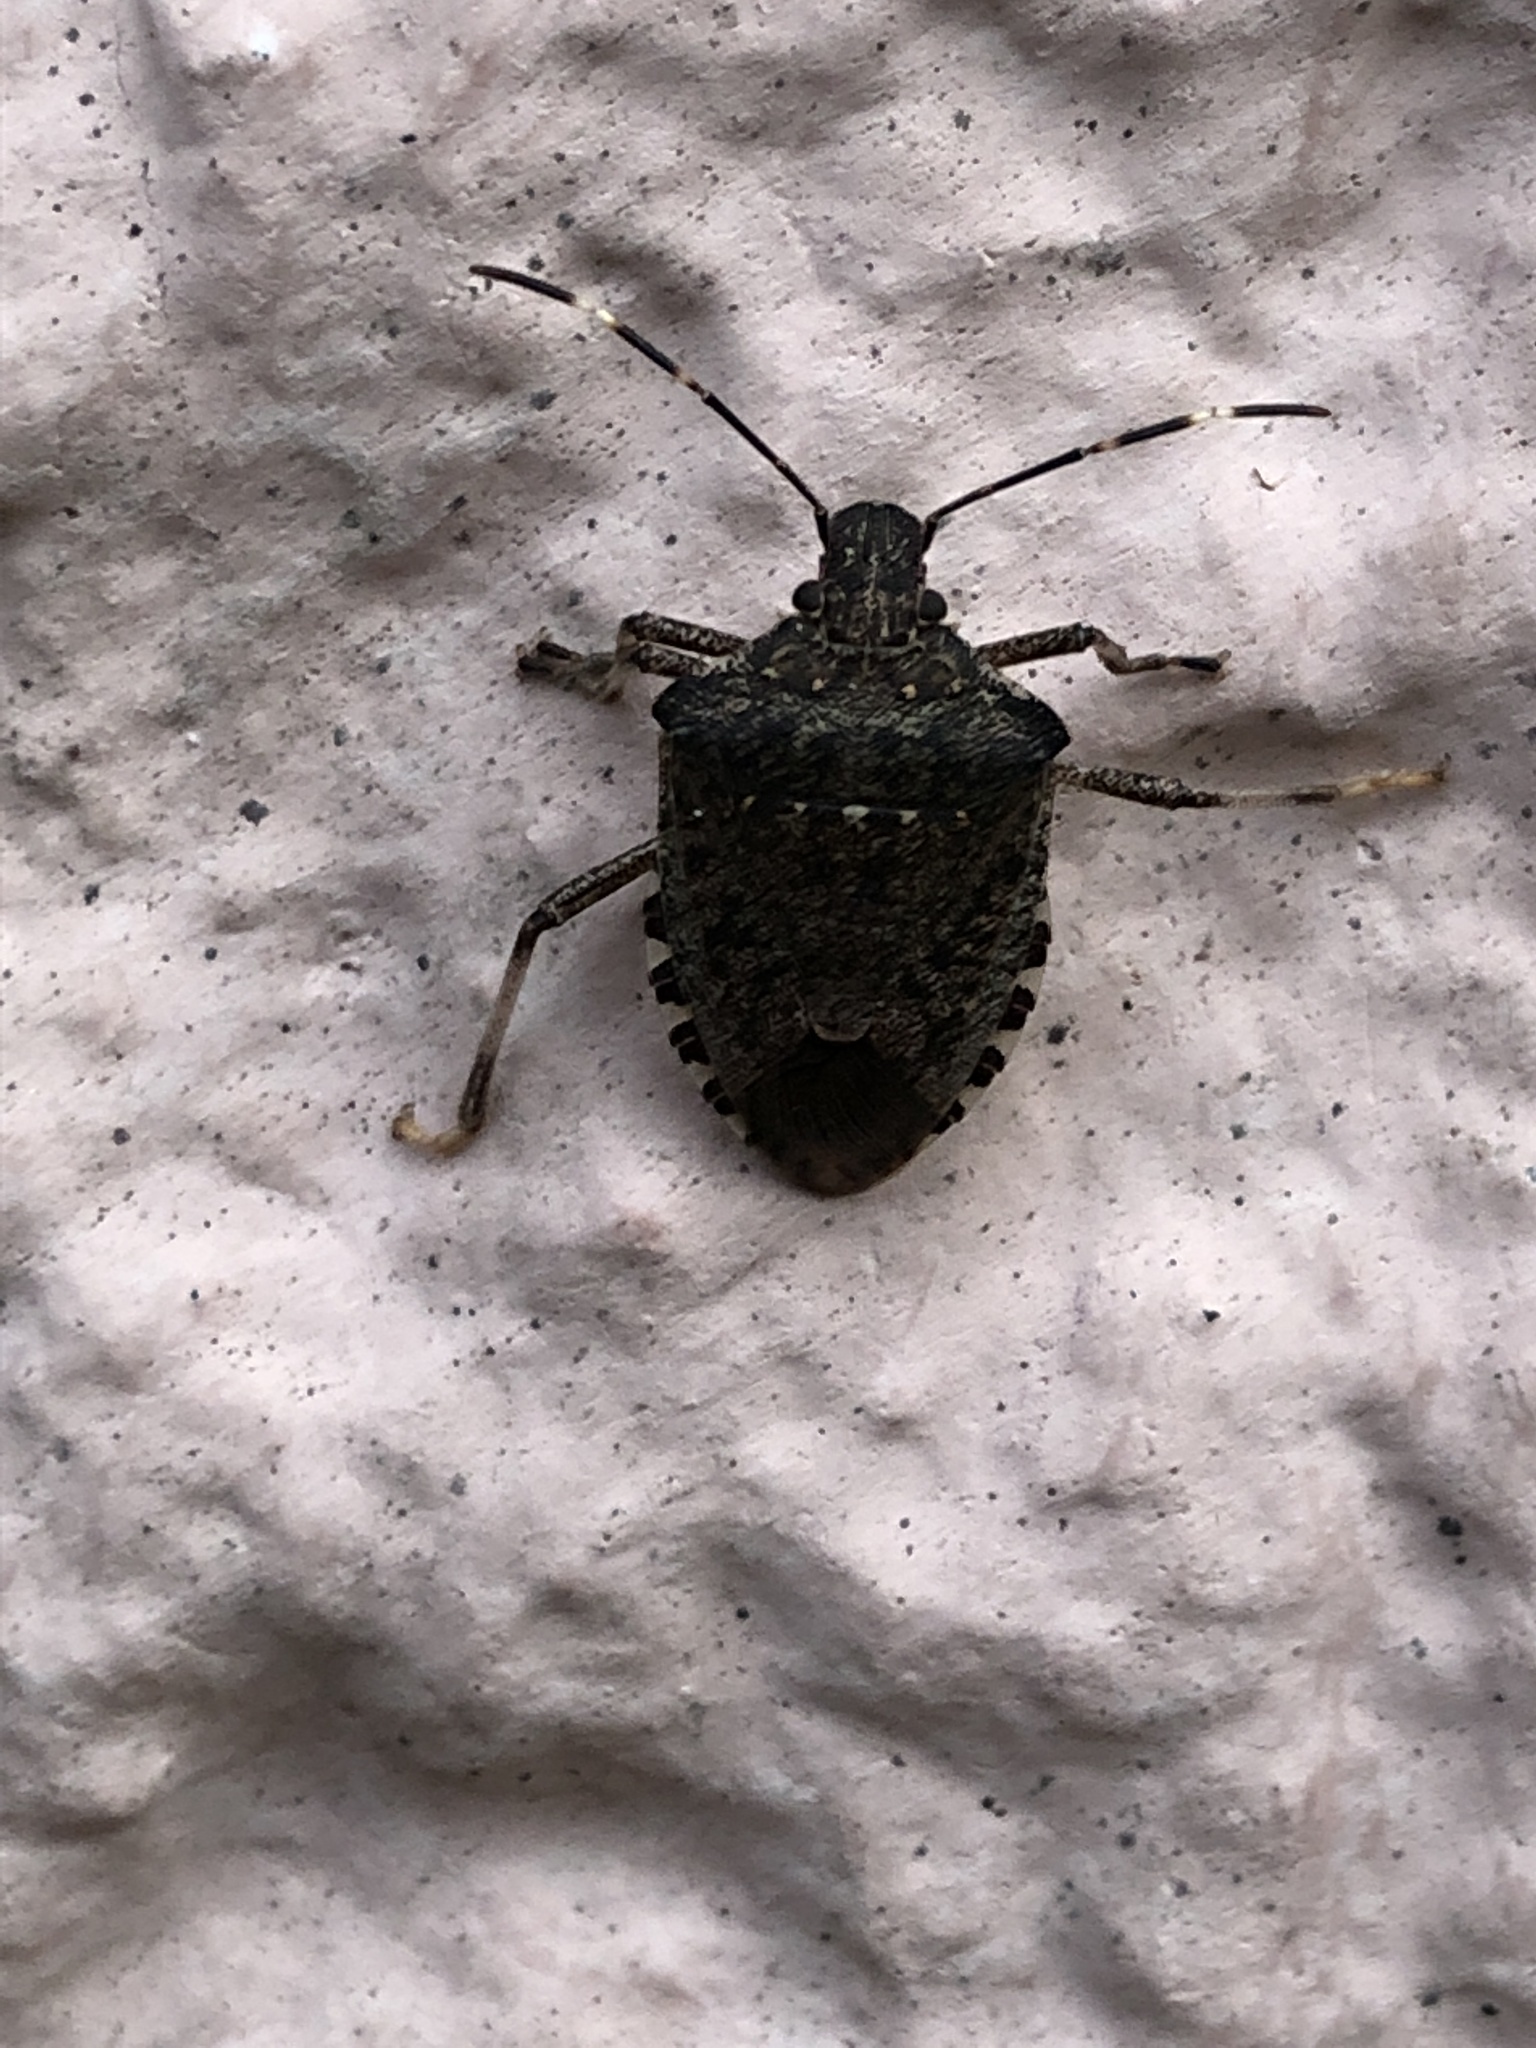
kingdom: Animalia
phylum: Arthropoda
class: Insecta
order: Hemiptera
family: Pentatomidae
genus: Halyomorpha
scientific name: Halyomorpha halys
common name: Brown marmorated stink bug
